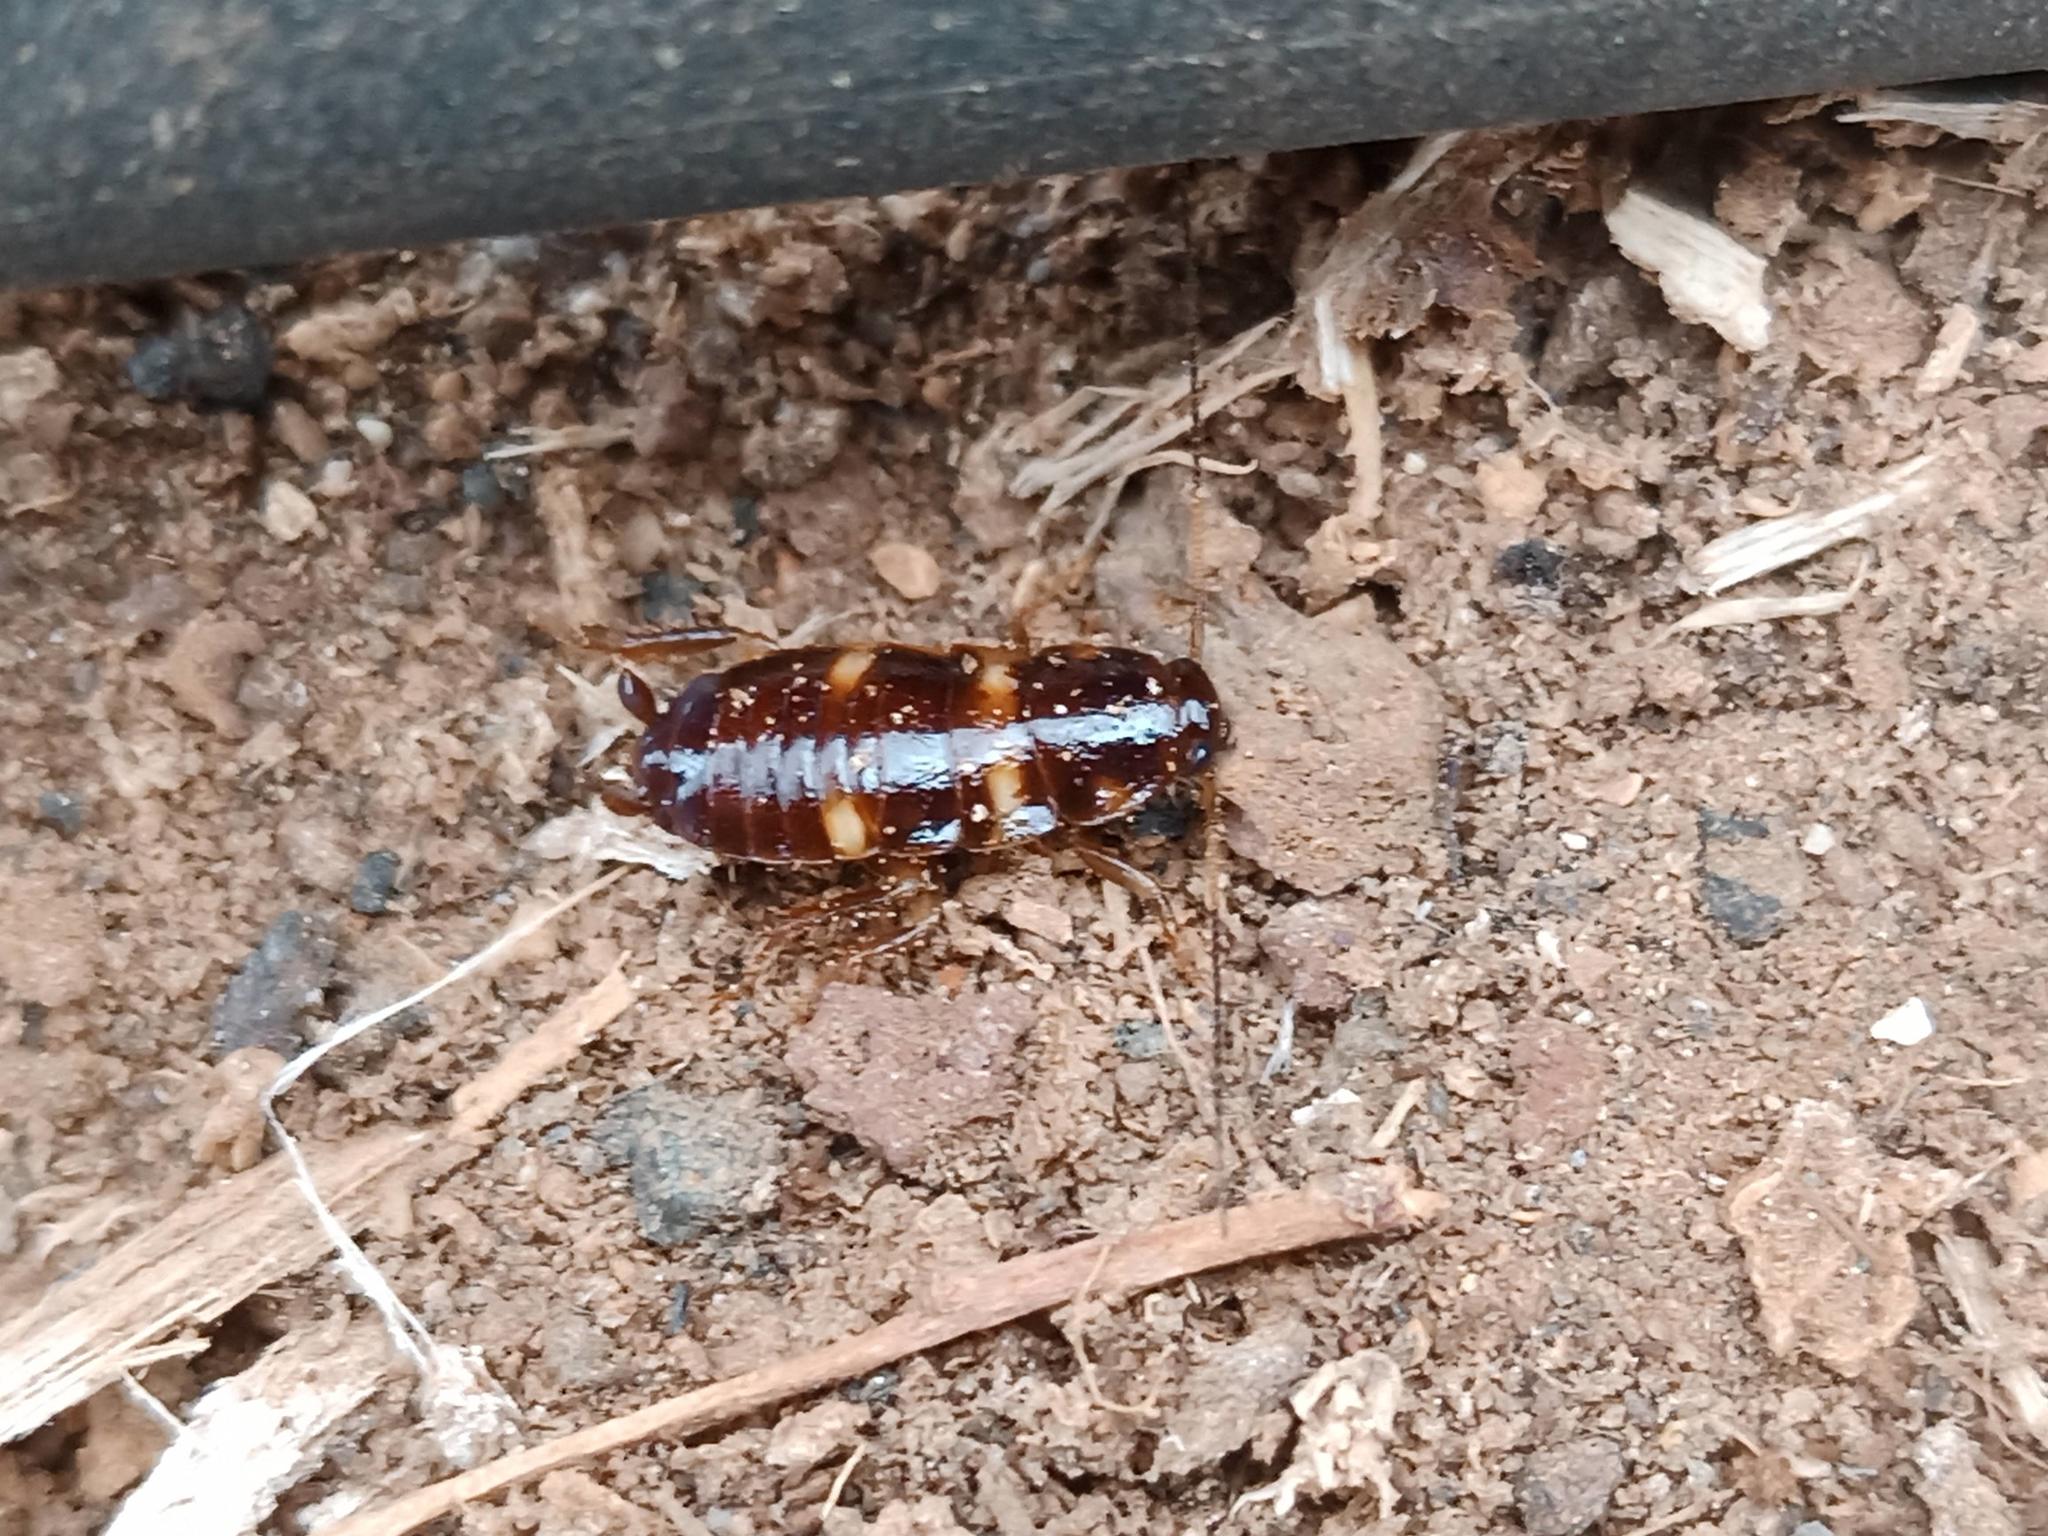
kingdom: Animalia
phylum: Arthropoda
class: Insecta
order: Blattodea
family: Blattidae
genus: Periplaneta
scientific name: Periplaneta australasiae
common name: Australian cockroach
